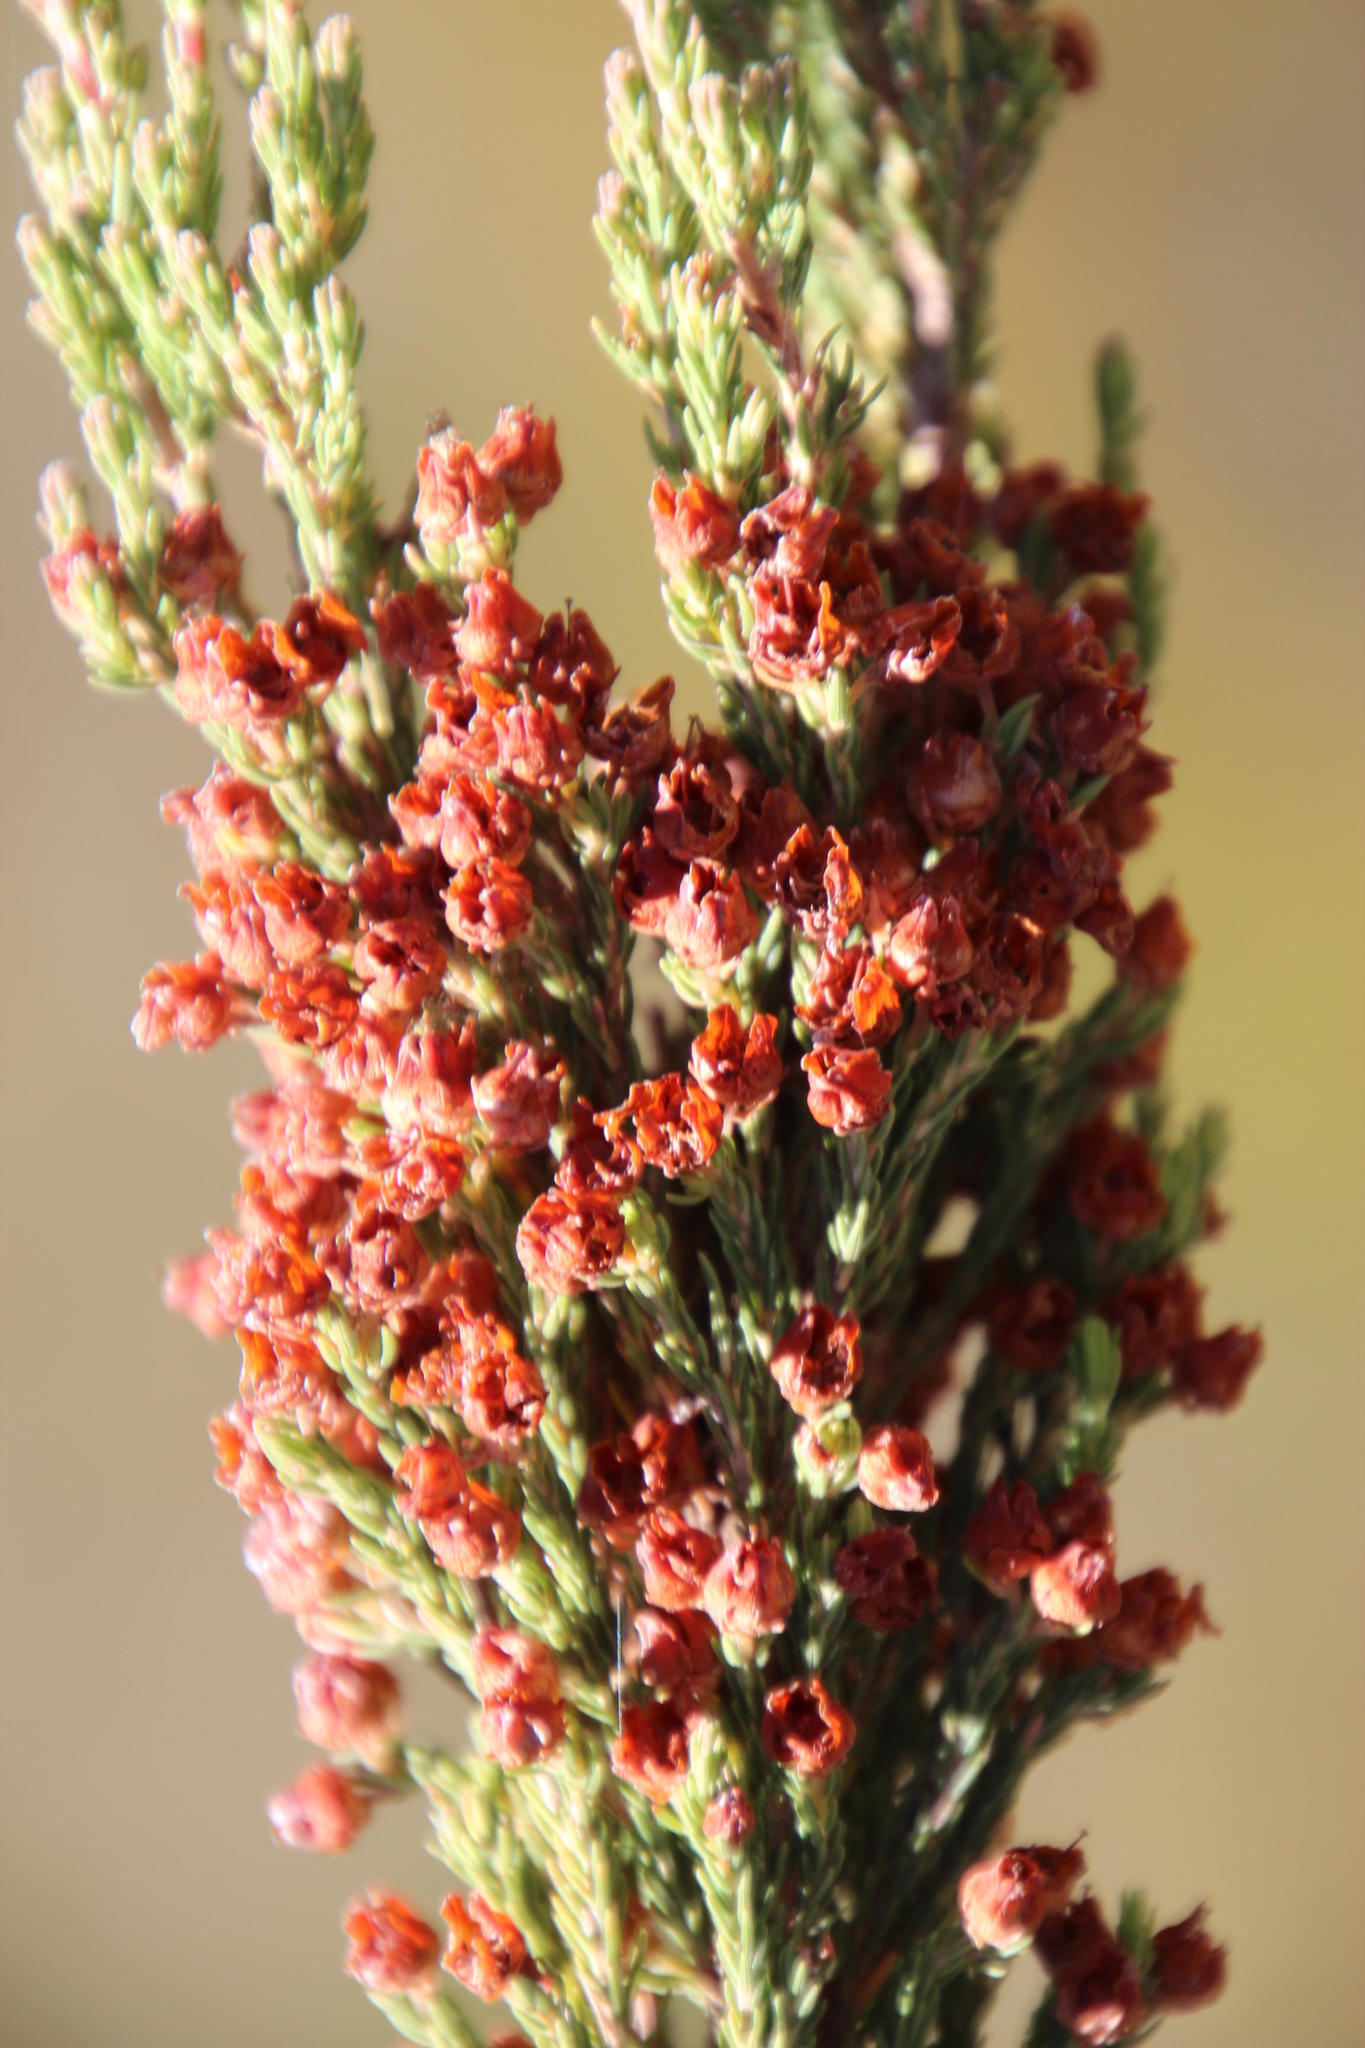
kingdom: Plantae
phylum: Tracheophyta
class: Magnoliopsida
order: Ericales
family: Ericaceae
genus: Erica
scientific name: Erica condensata
